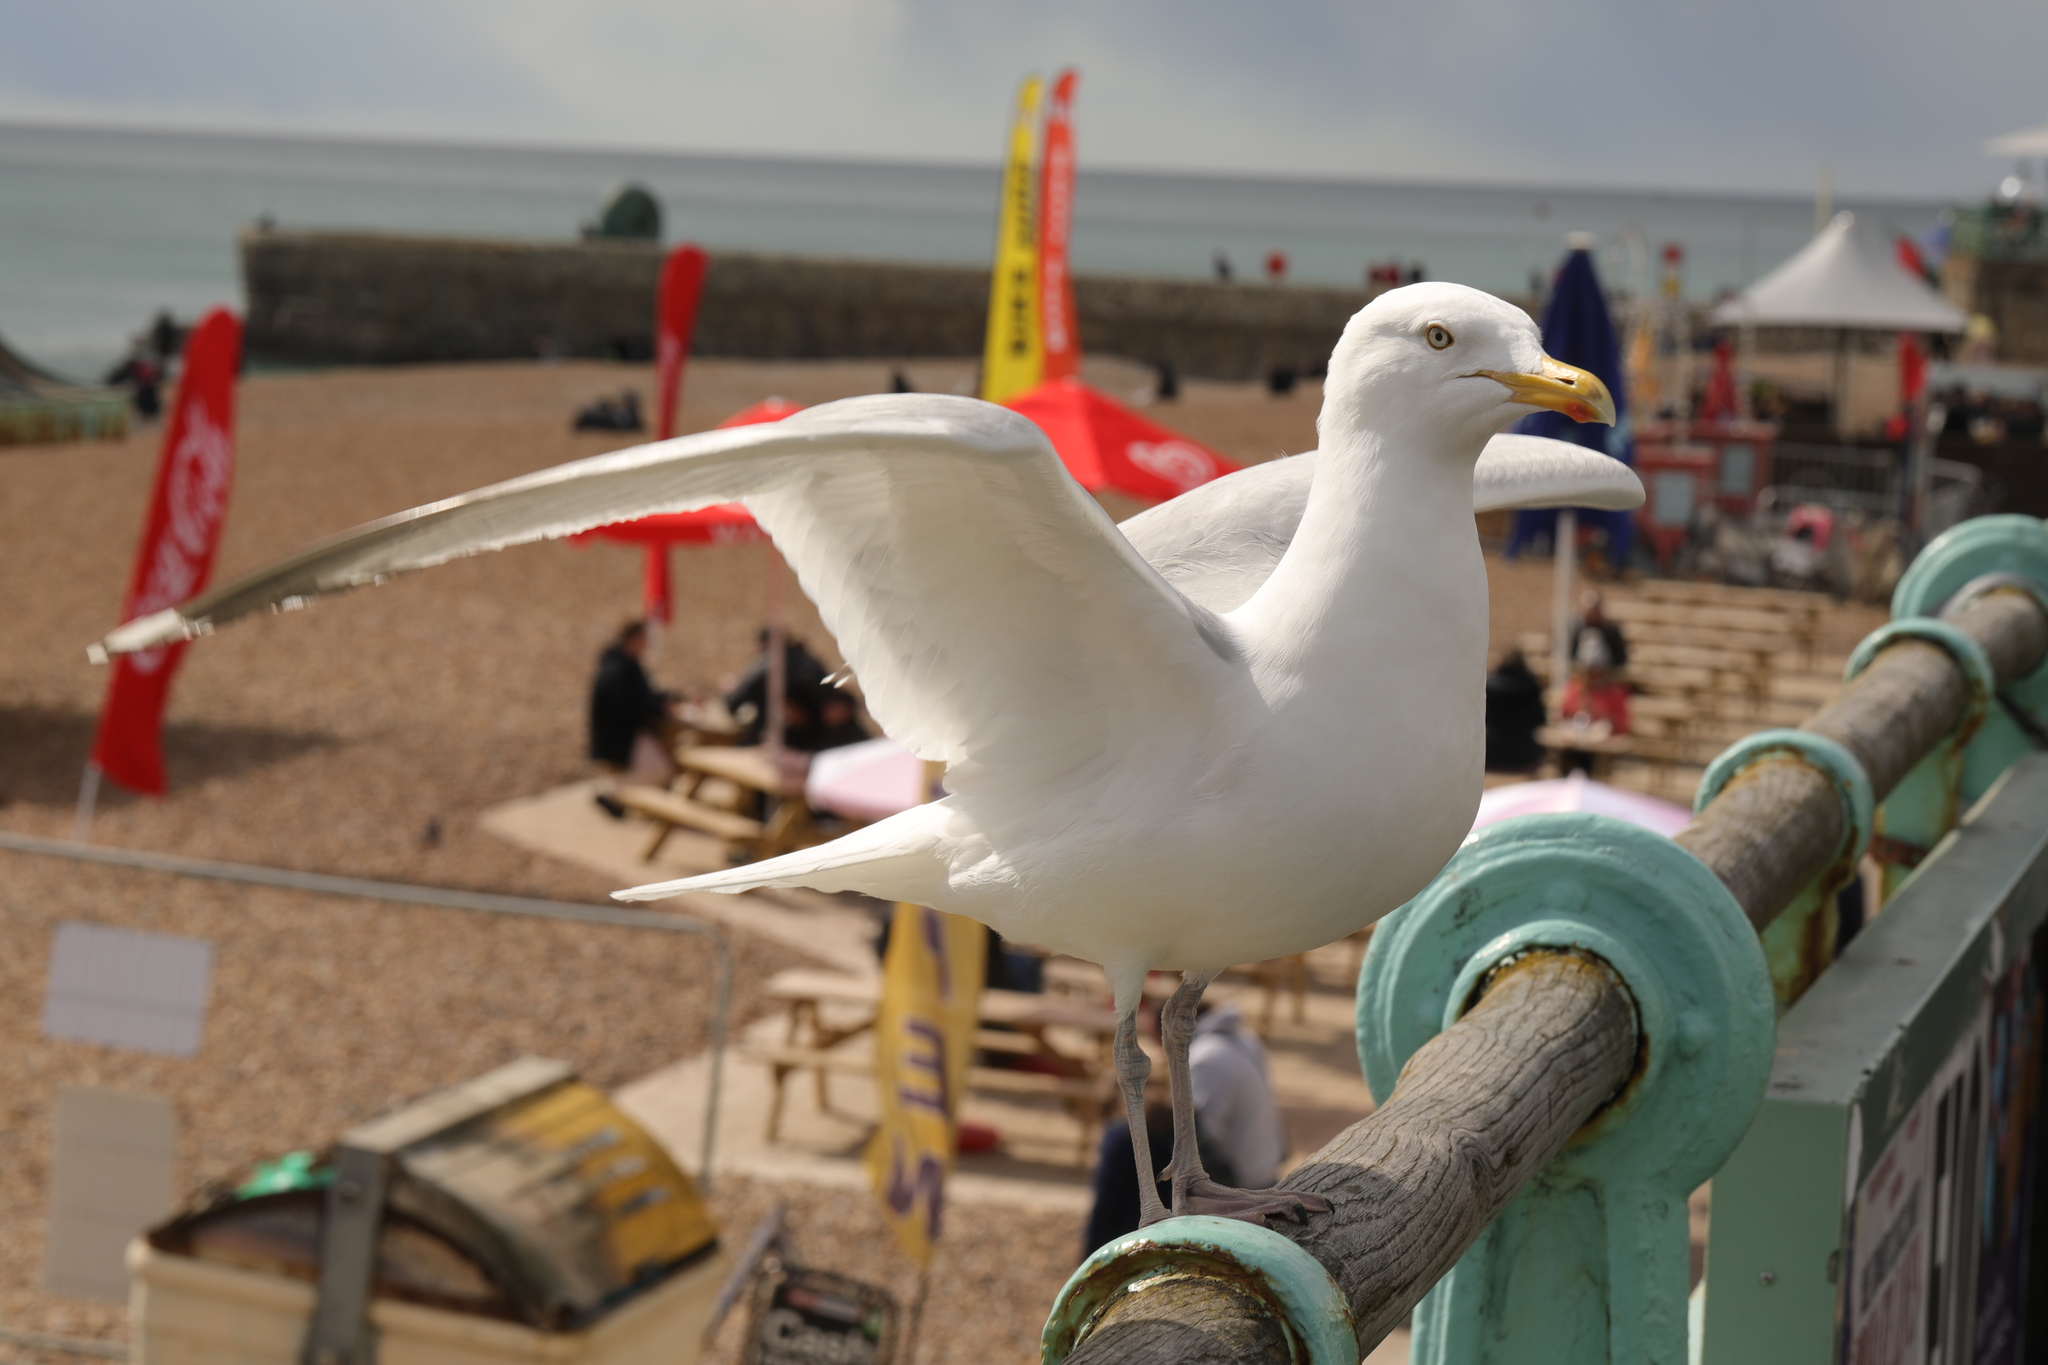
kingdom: Animalia
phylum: Chordata
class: Aves
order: Charadriiformes
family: Laridae
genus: Larus
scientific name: Larus argentatus
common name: Herring gull
